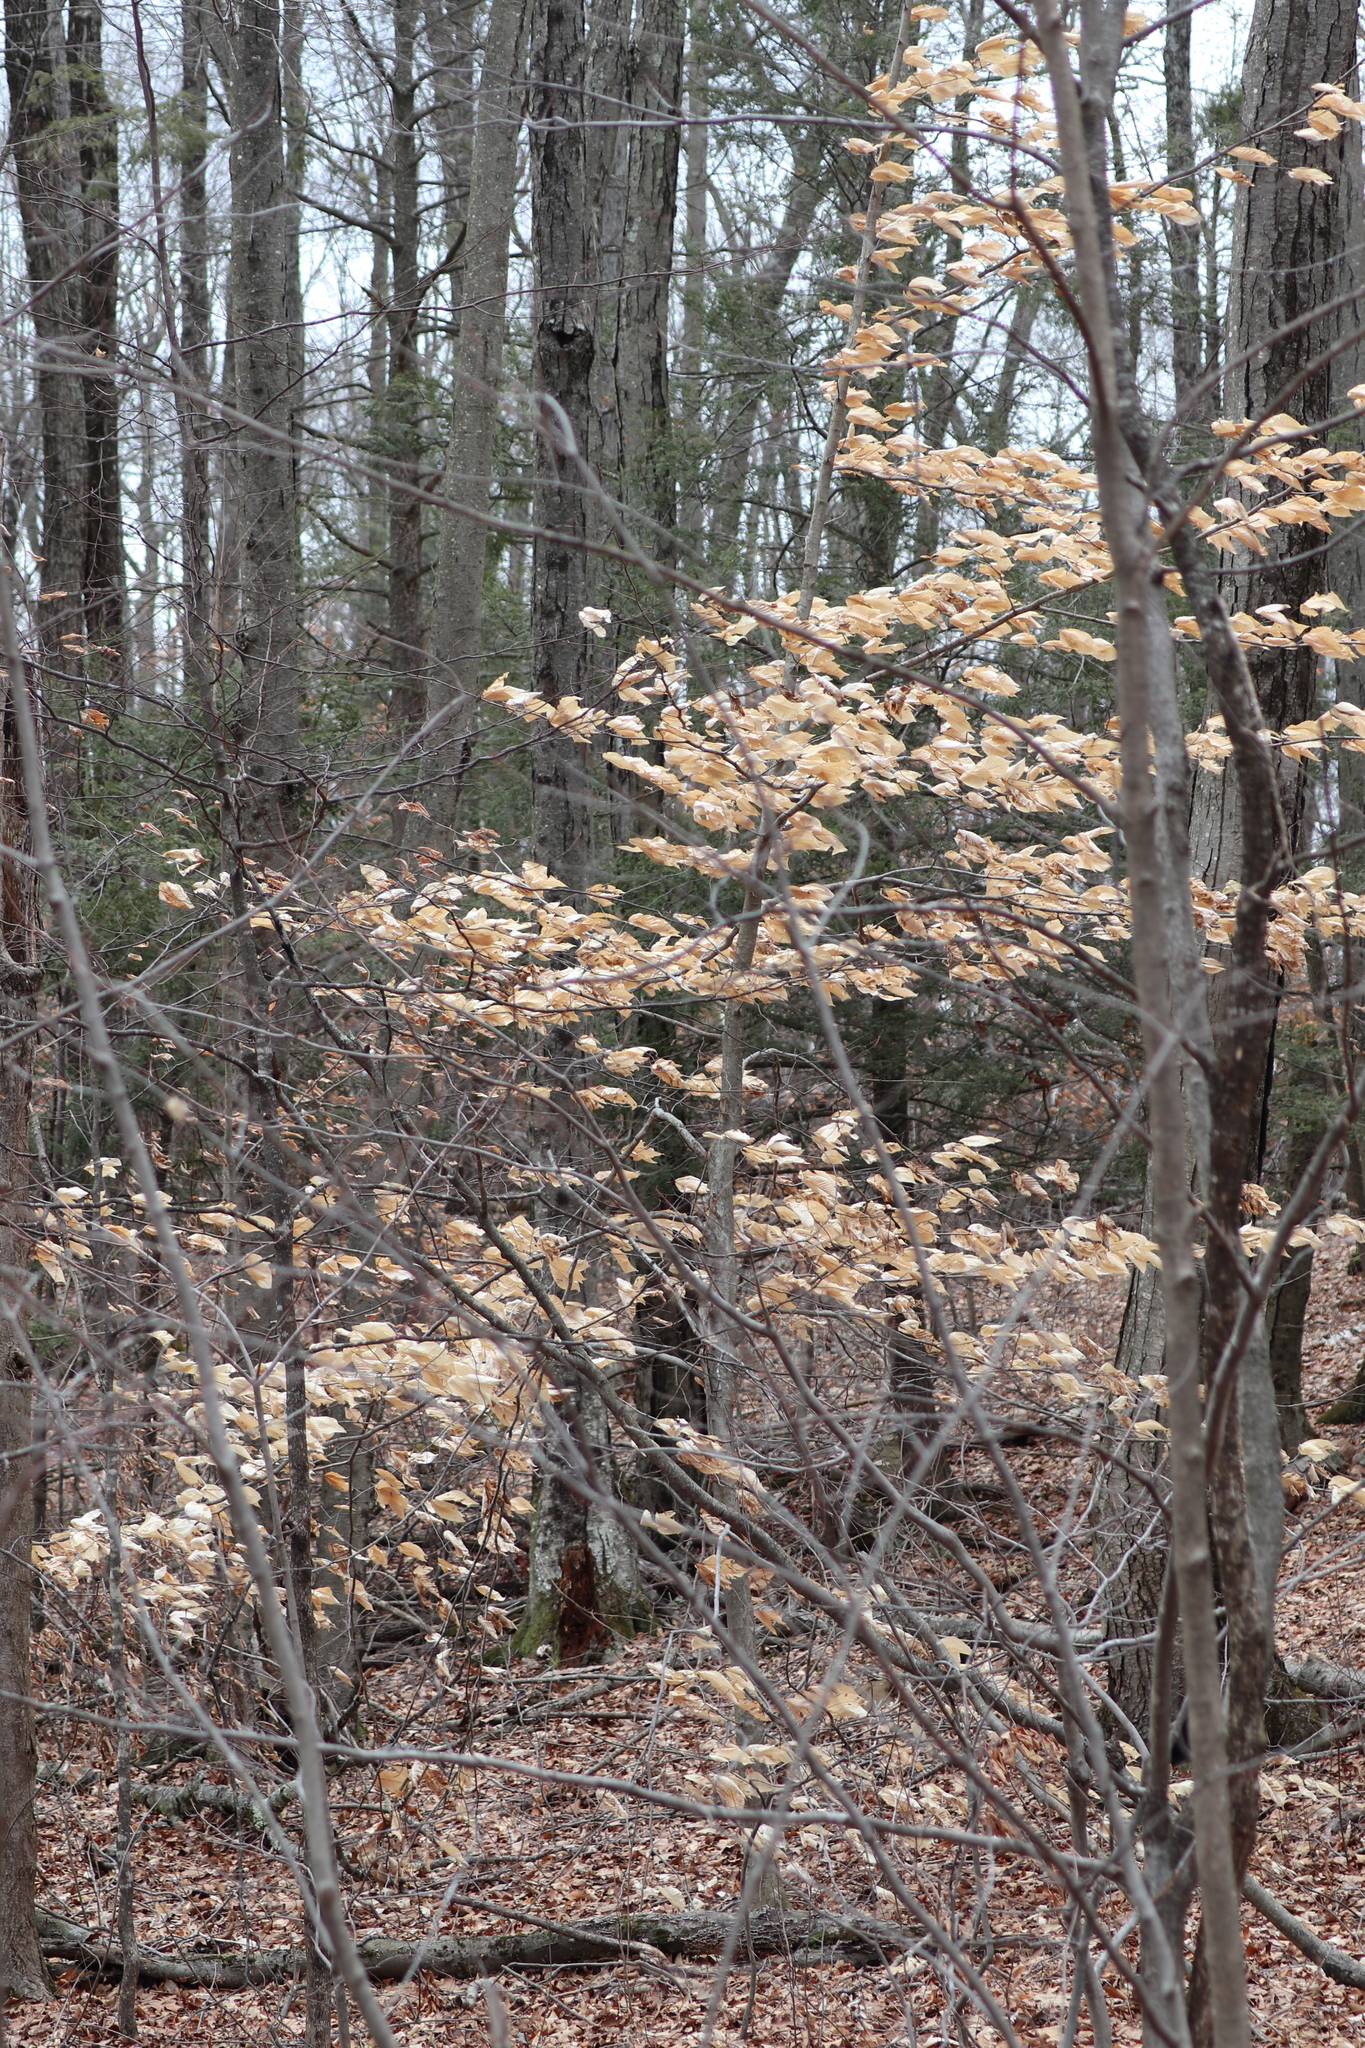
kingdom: Plantae
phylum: Tracheophyta
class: Magnoliopsida
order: Fagales
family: Fagaceae
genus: Fagus
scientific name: Fagus grandifolia
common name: American beech
